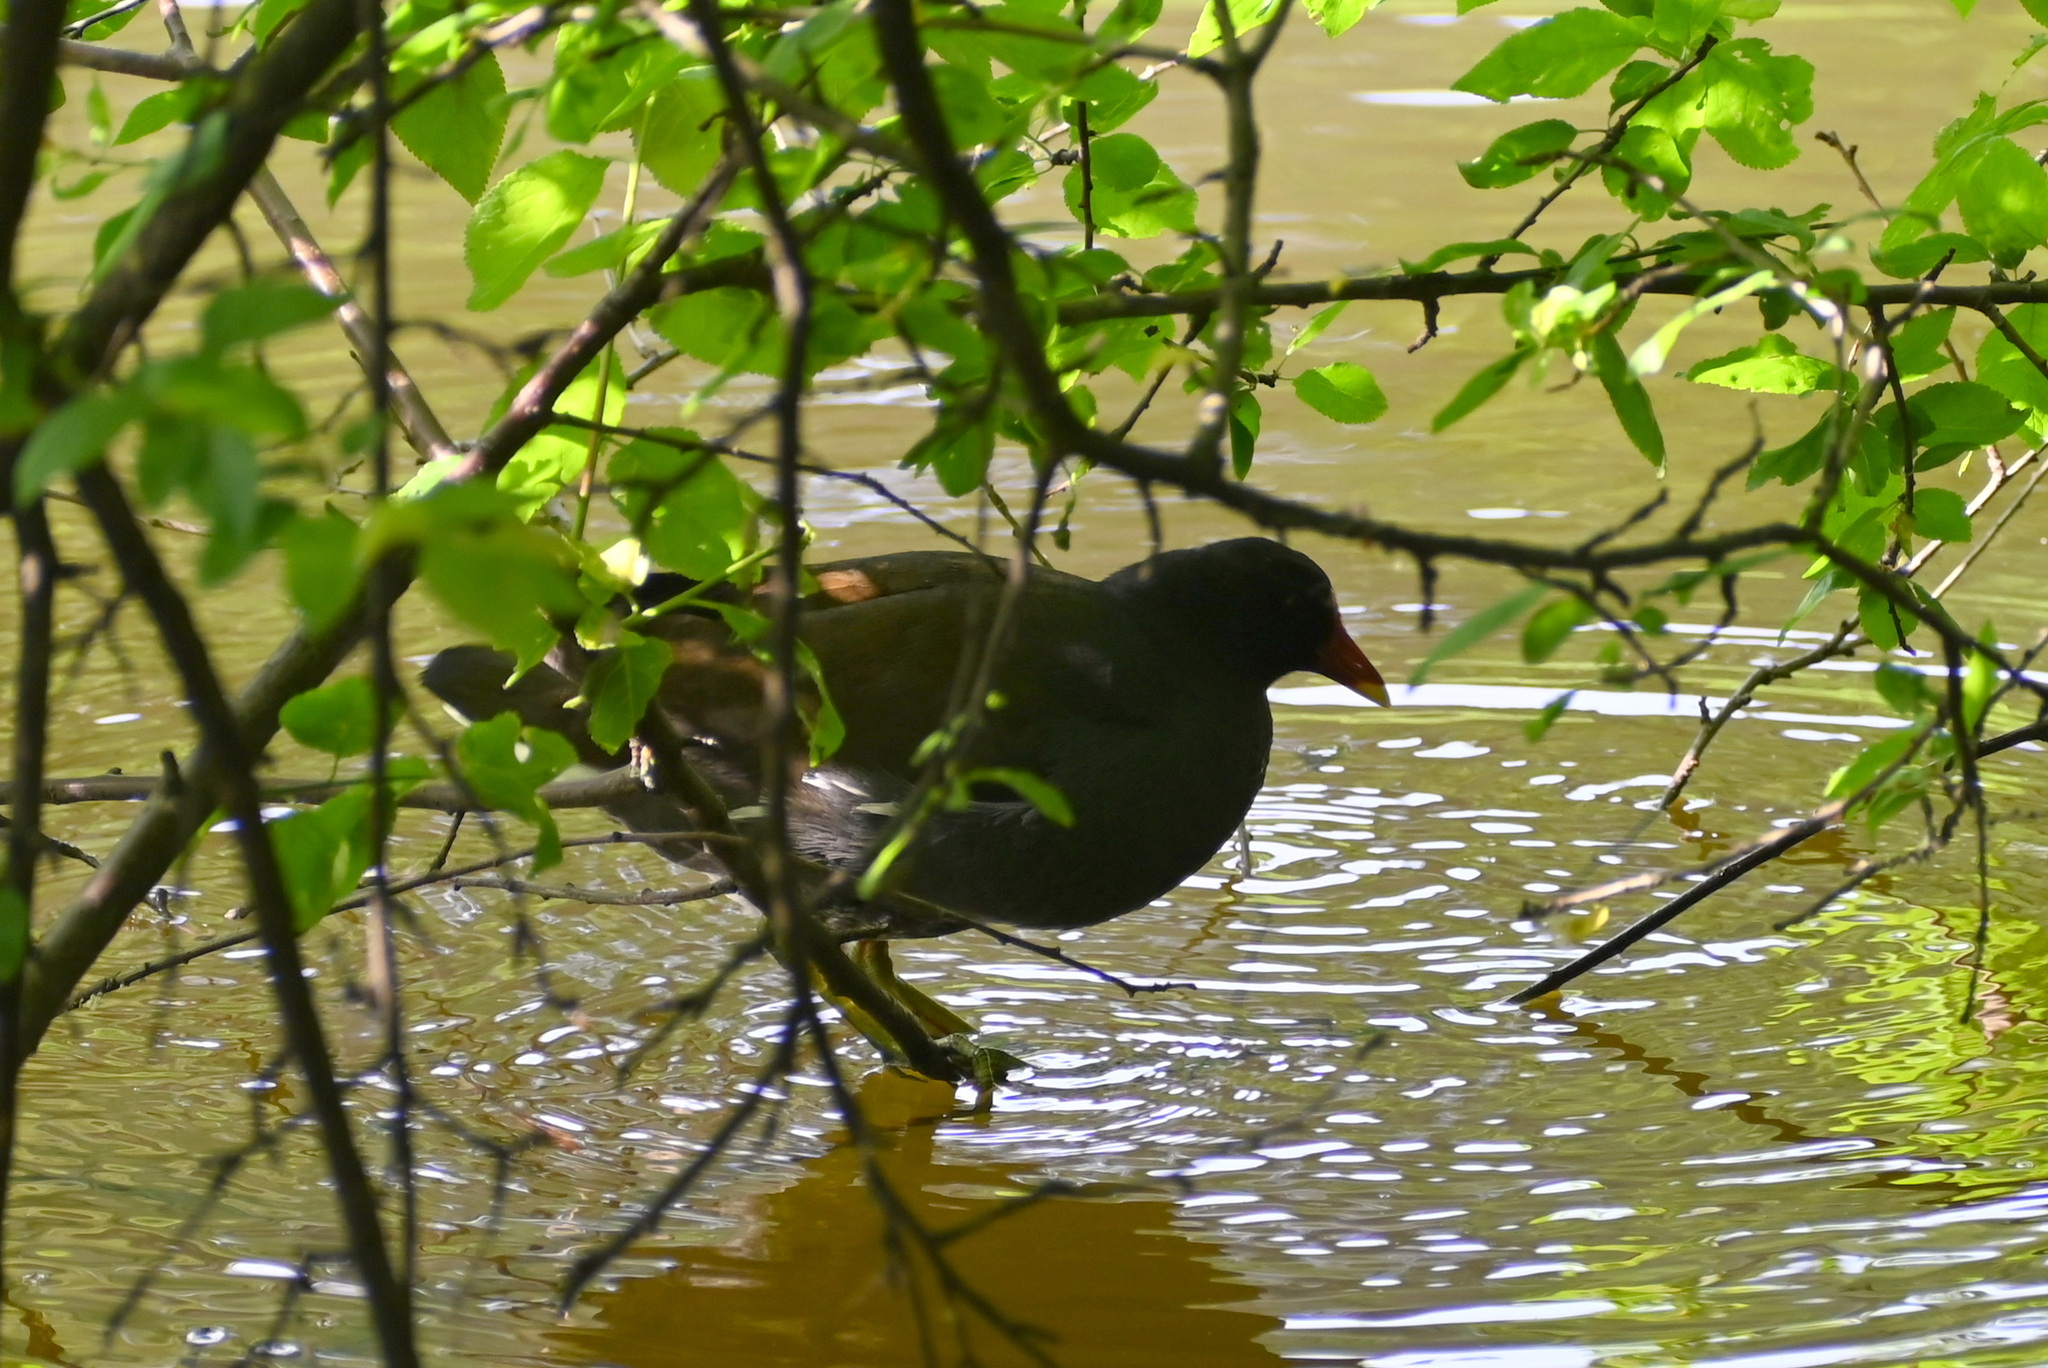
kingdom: Animalia
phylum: Chordata
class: Aves
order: Gruiformes
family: Rallidae
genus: Gallinula
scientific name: Gallinula chloropus
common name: Common moorhen
